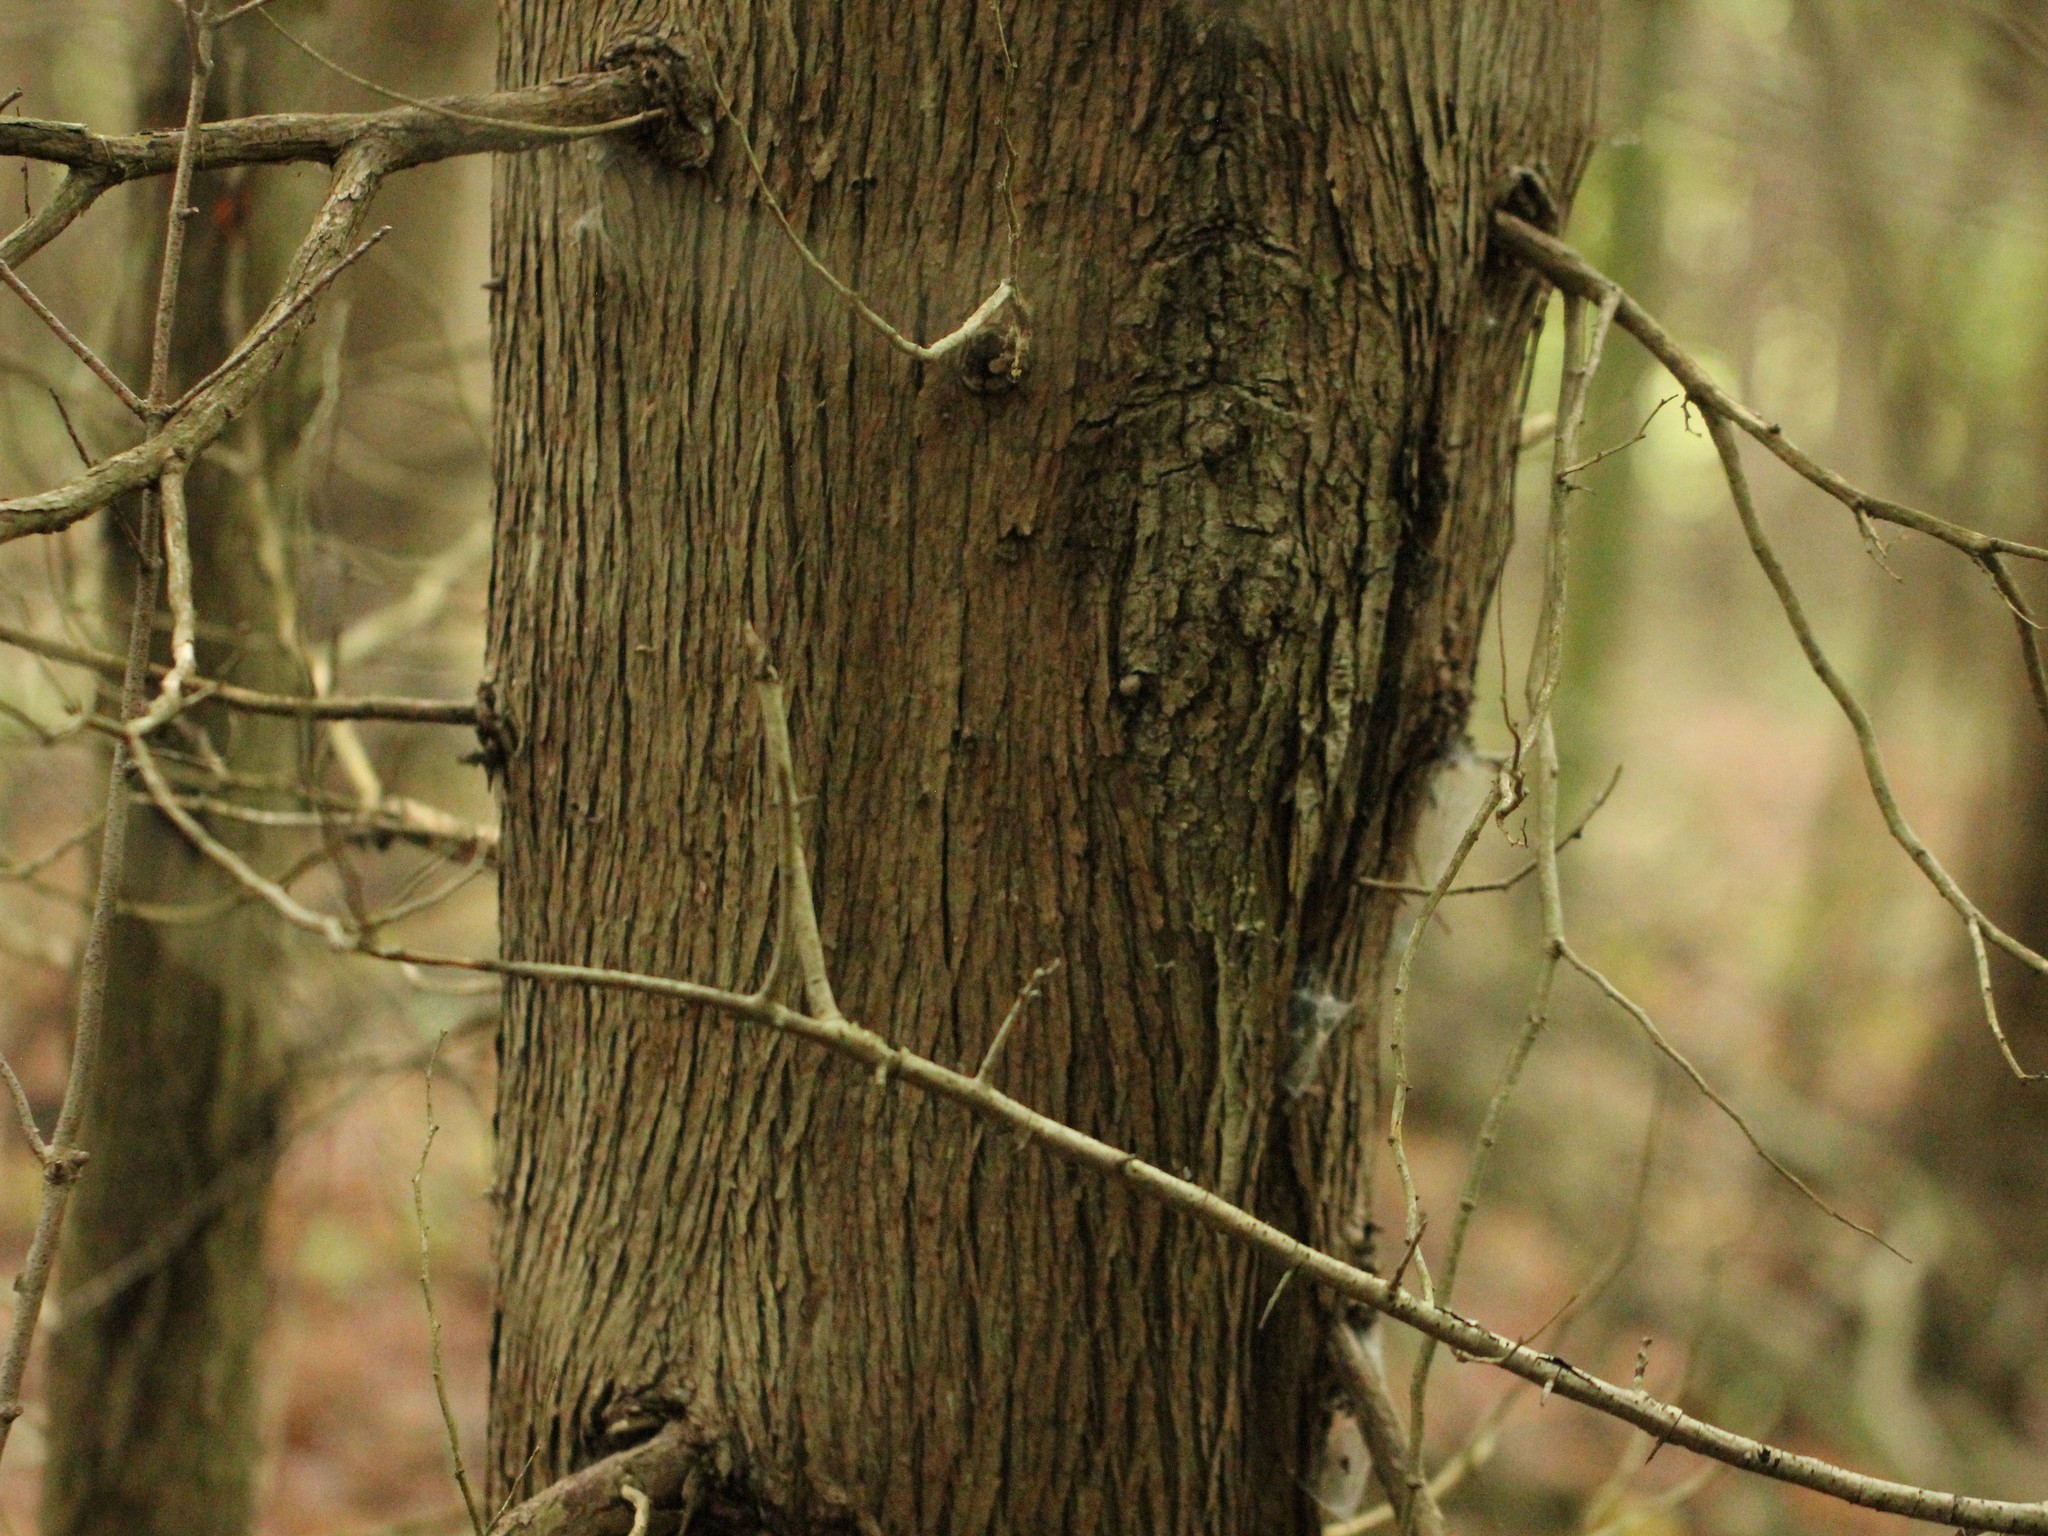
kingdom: Plantae
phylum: Tracheophyta
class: Pinopsida
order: Pinales
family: Pinaceae
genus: Tsuga
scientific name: Tsuga canadensis
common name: Eastern hemlock
